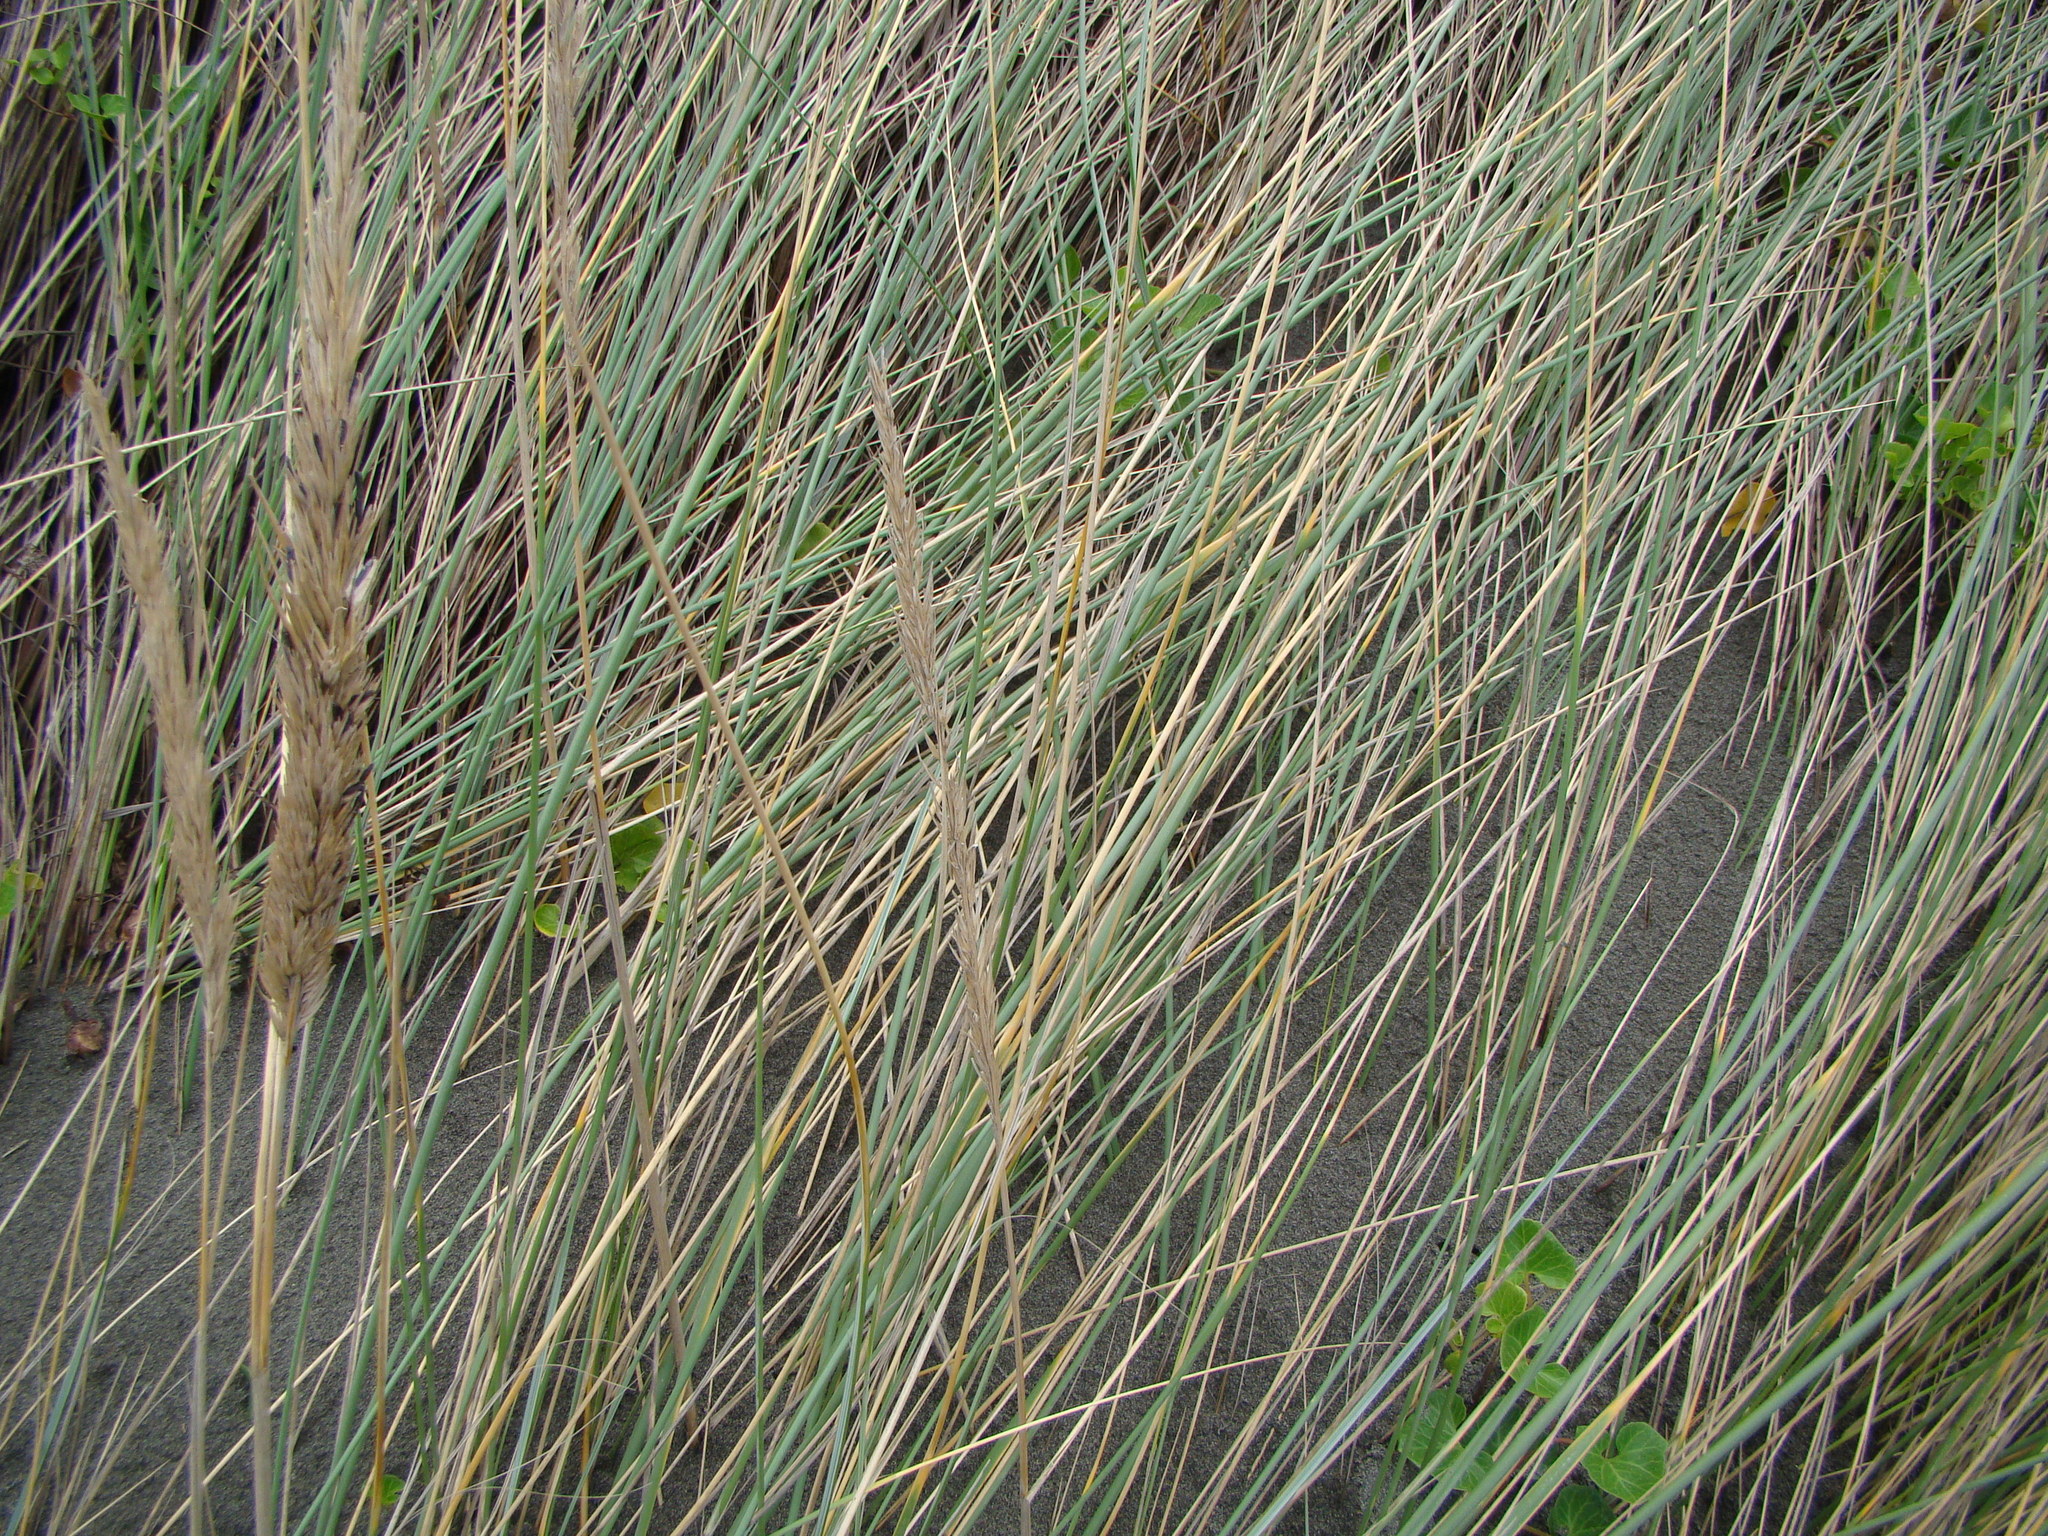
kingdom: Plantae
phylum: Tracheophyta
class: Liliopsida
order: Poales
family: Poaceae
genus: Calamagrostis
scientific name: Calamagrostis arenaria
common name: European beachgrass
